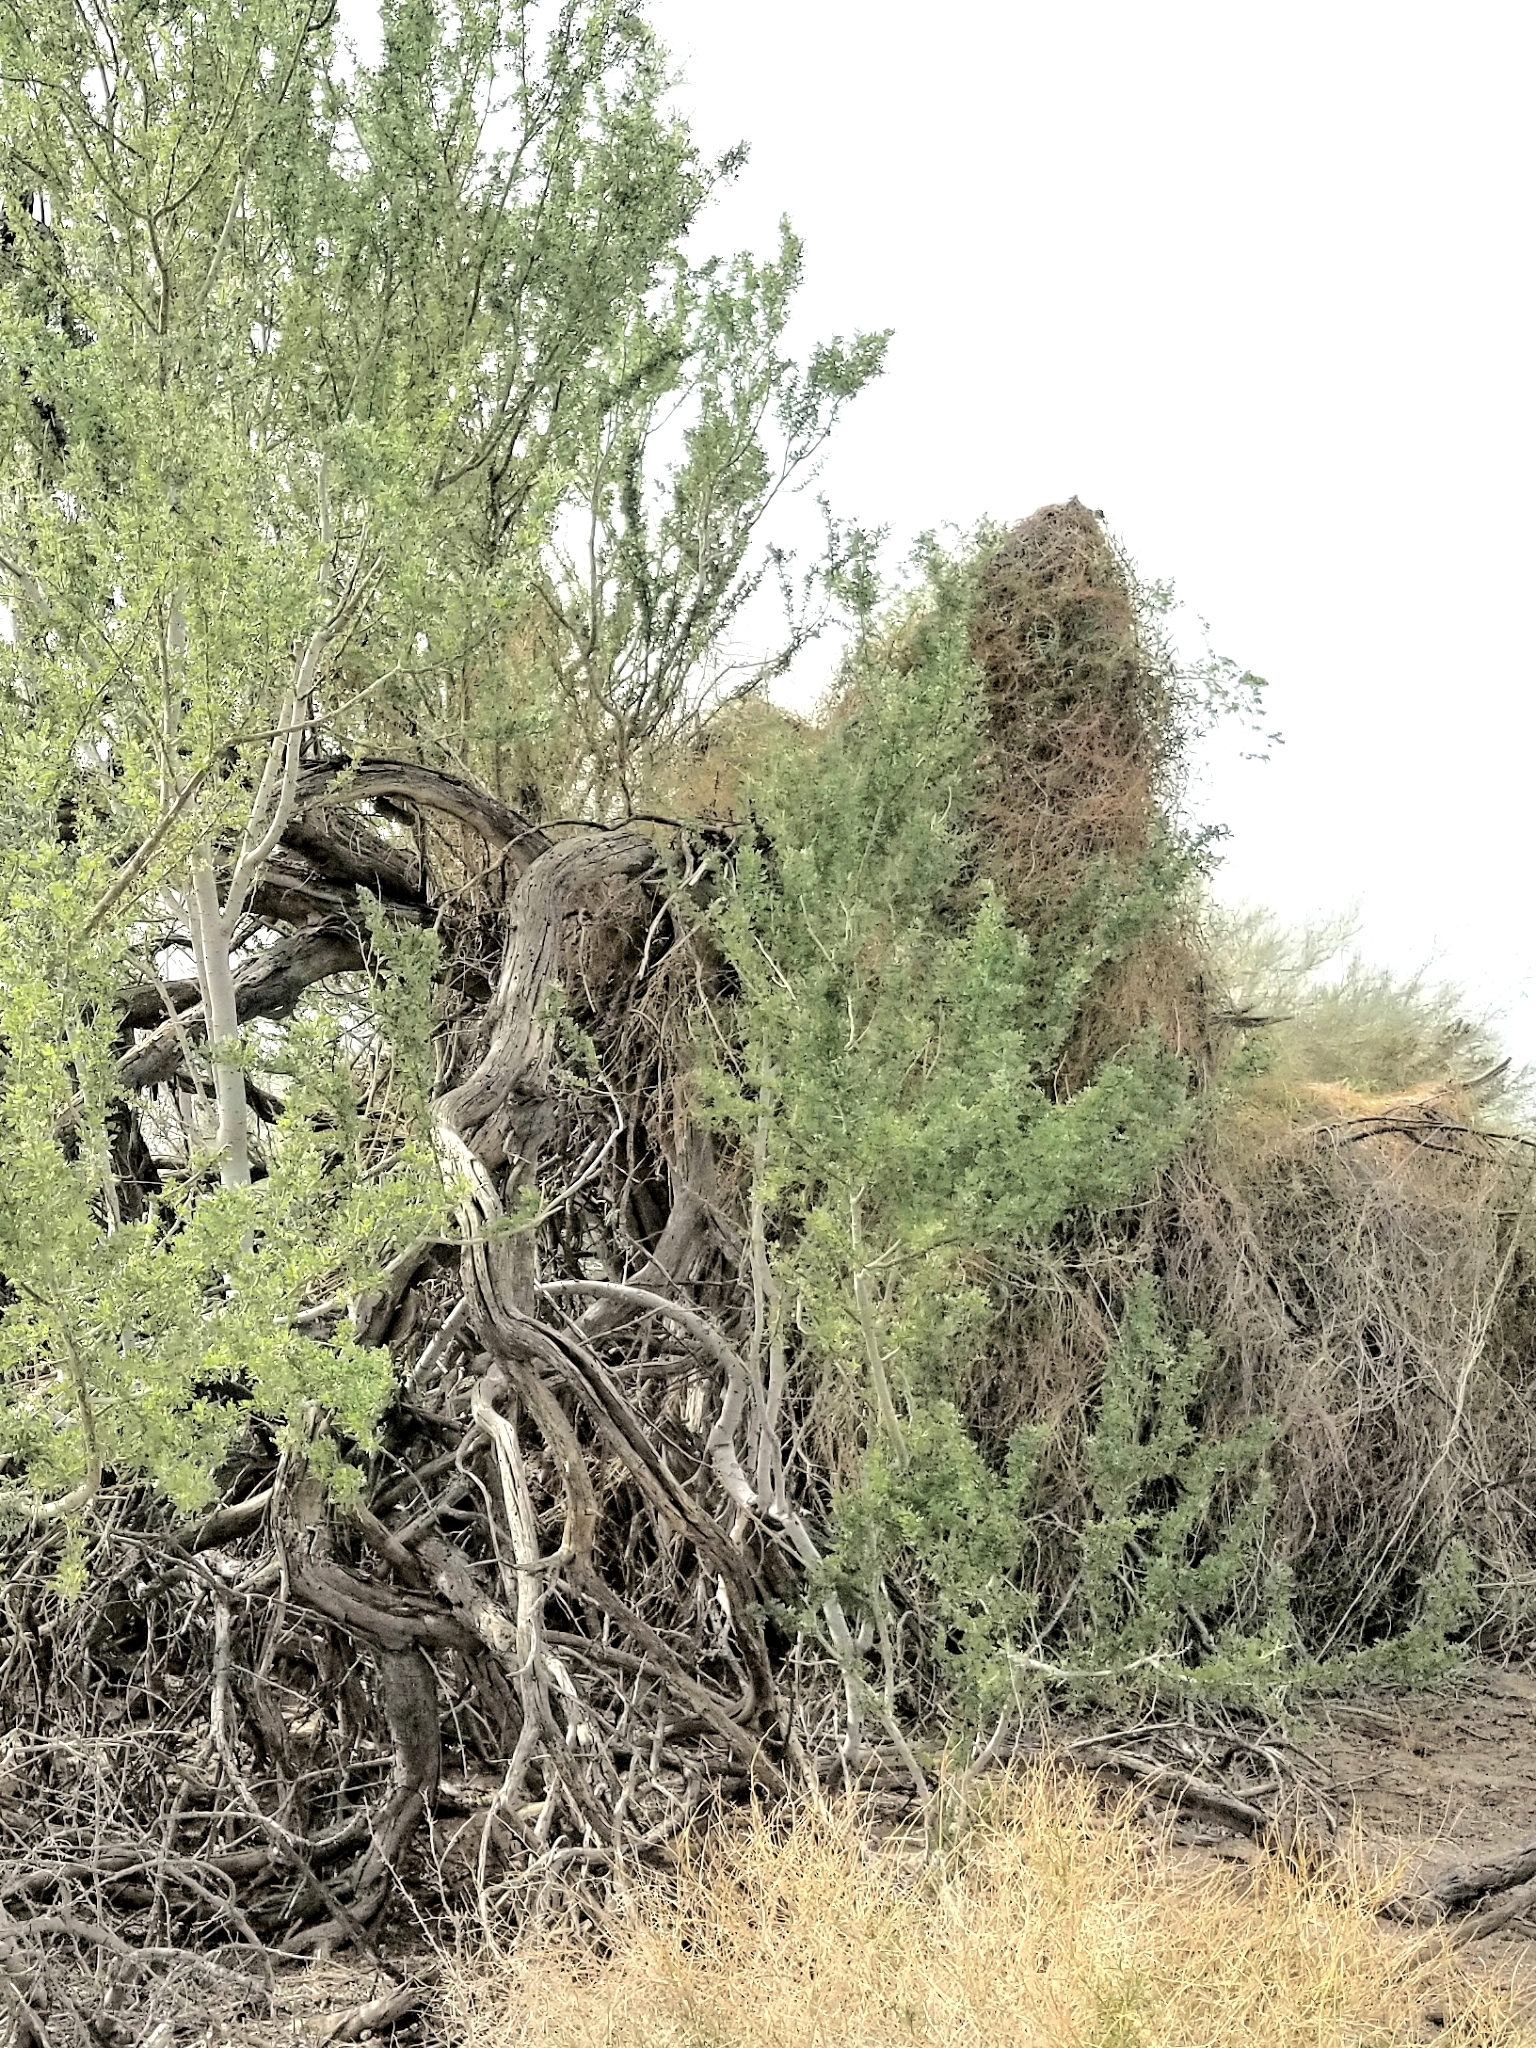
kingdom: Plantae
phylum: Tracheophyta
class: Magnoliopsida
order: Santalales
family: Viscaceae
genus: Phoradendron
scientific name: Phoradendron californicum
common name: Acacia mistletoe
